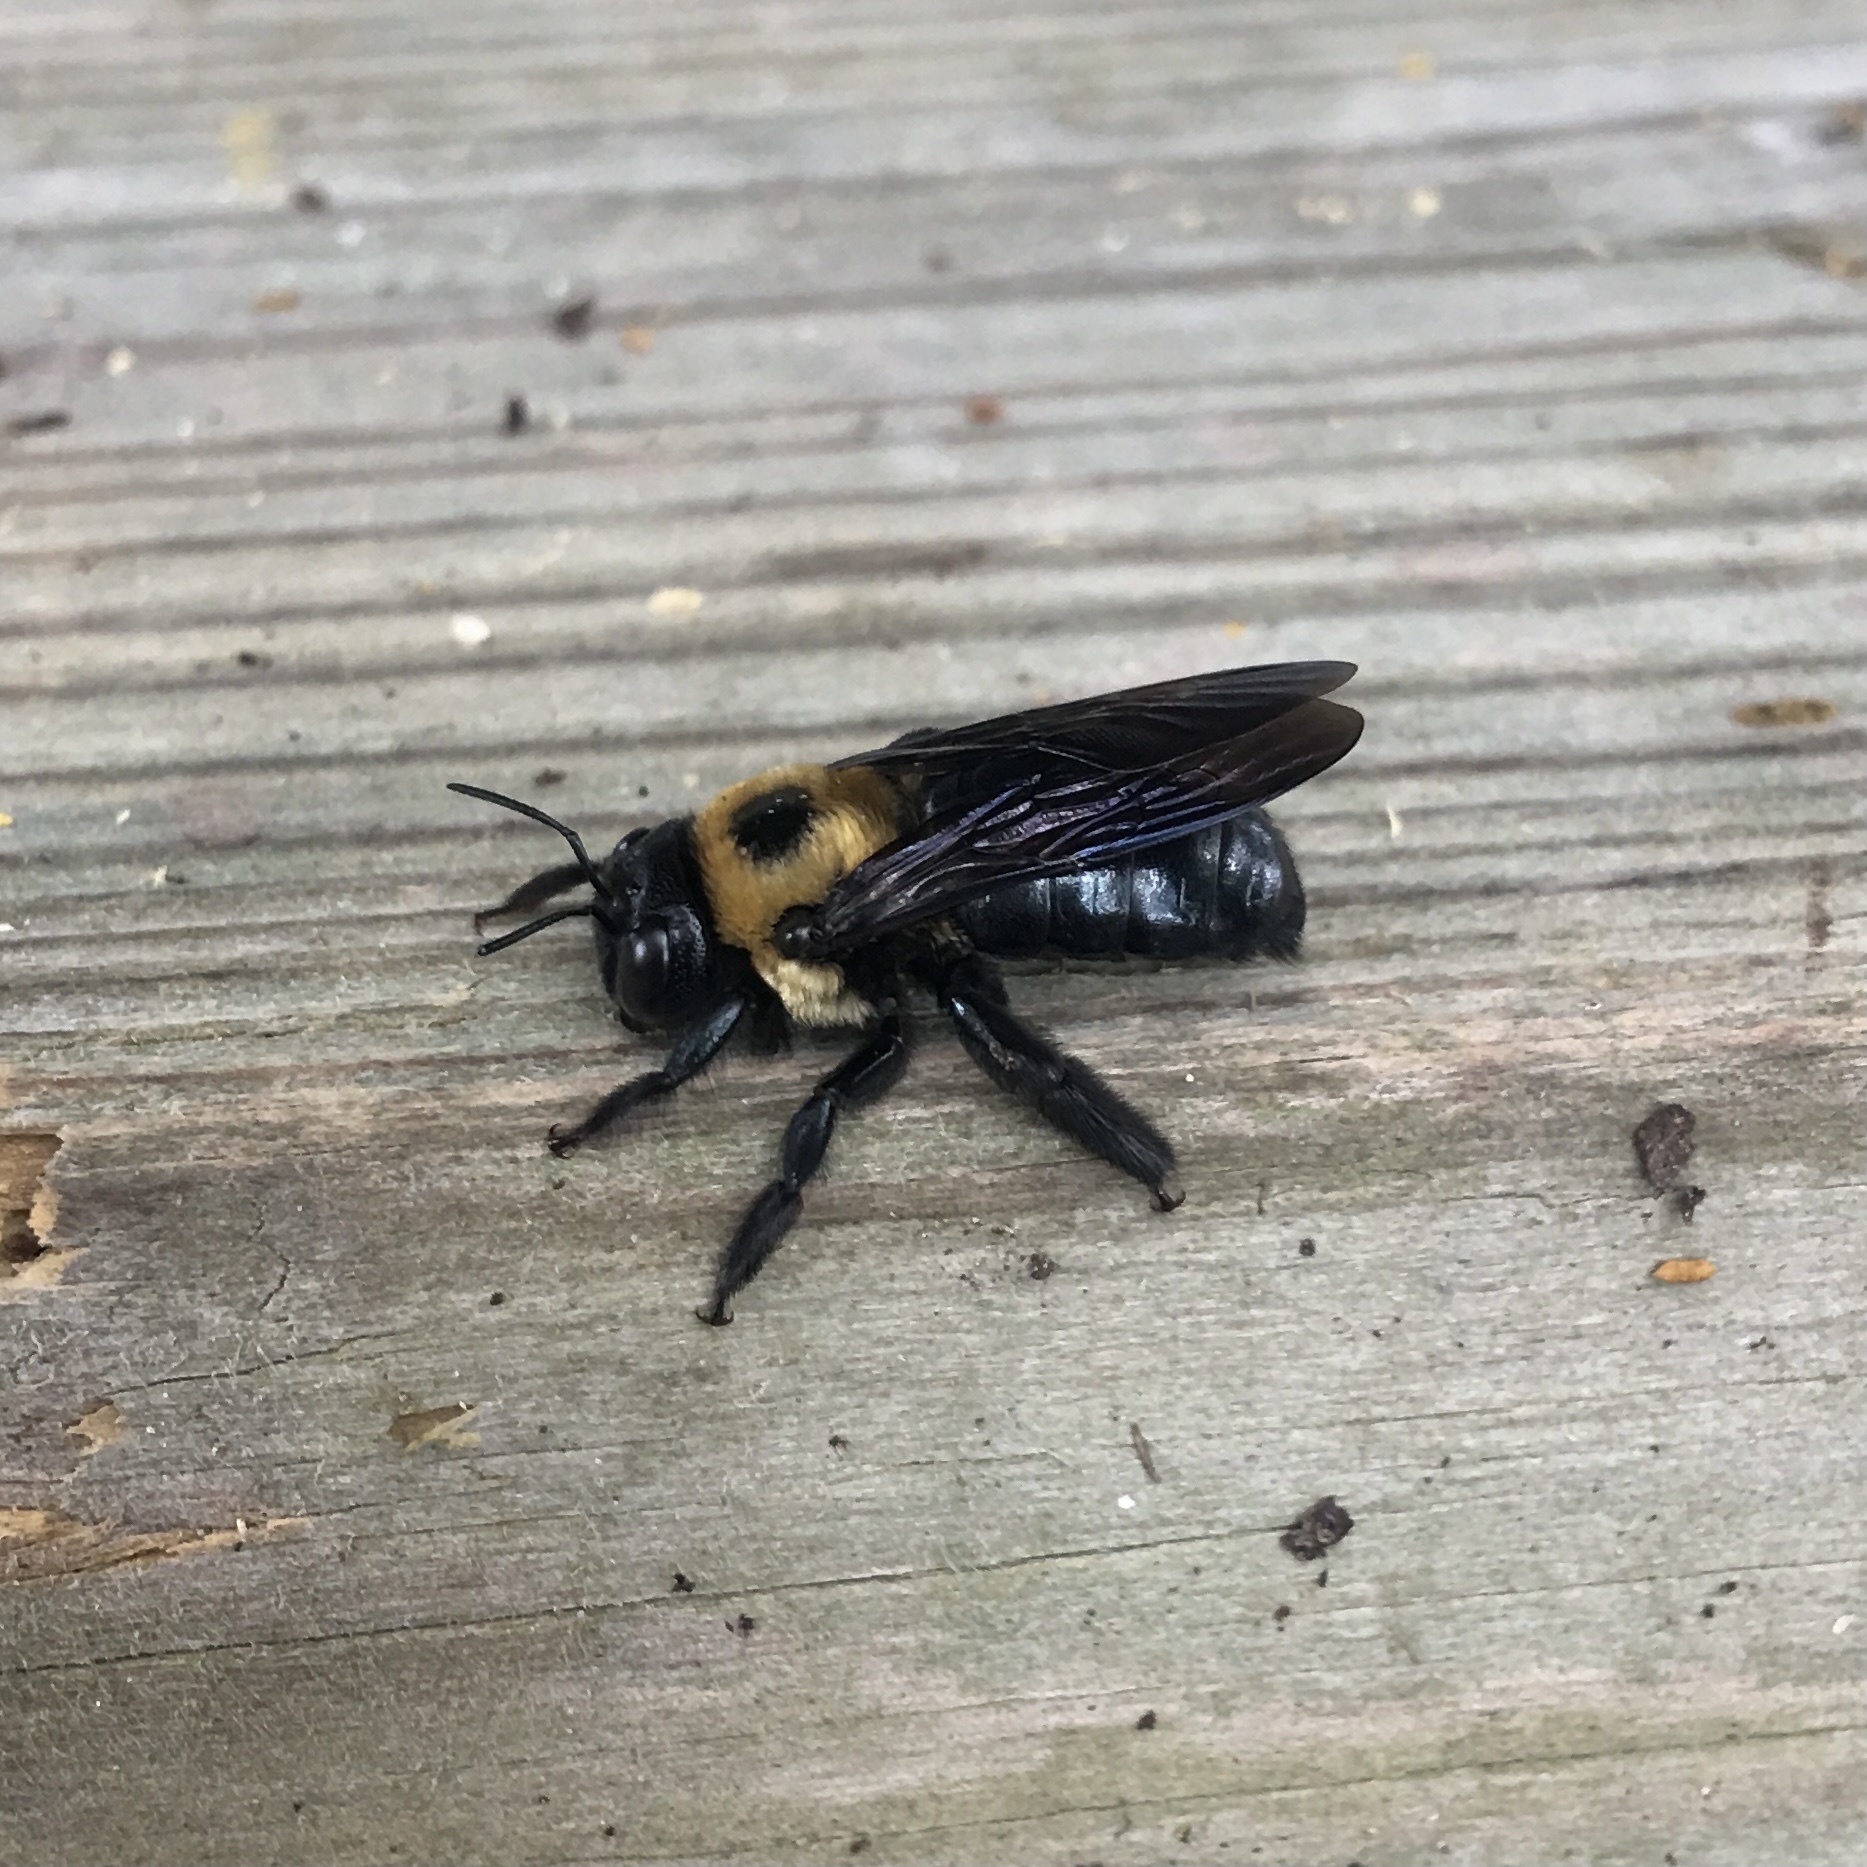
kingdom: Animalia
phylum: Arthropoda
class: Insecta
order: Hymenoptera
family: Apidae
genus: Xylocopa
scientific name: Xylocopa virginica
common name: Carpenter bee
